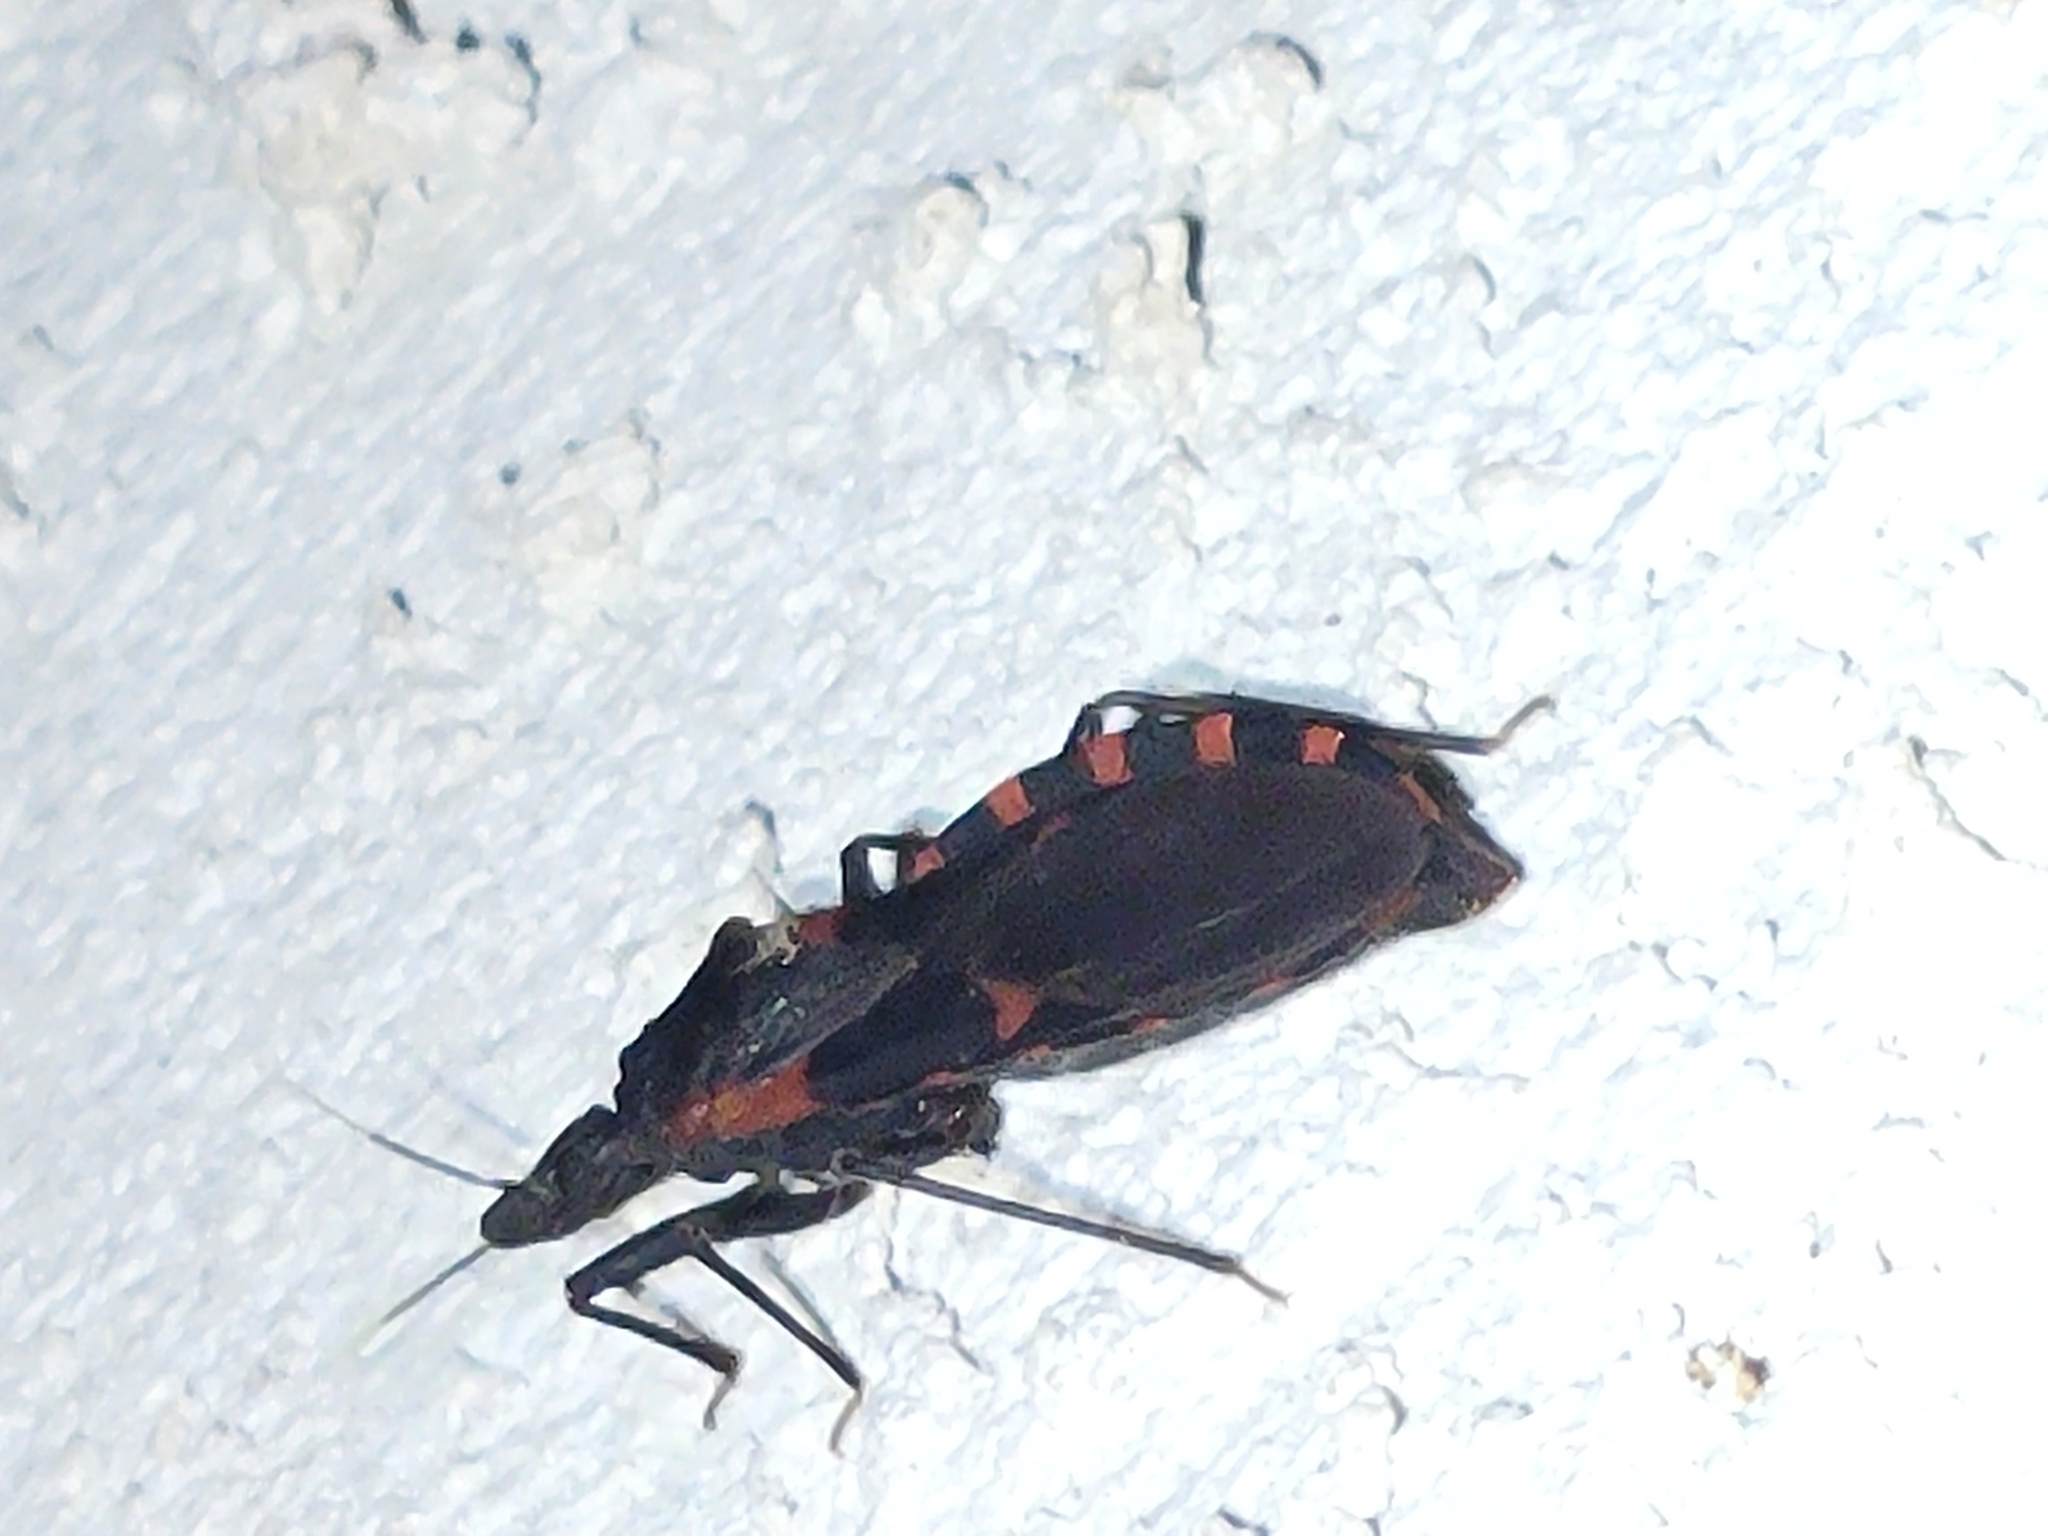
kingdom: Animalia
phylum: Arthropoda
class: Insecta
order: Hemiptera
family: Reduviidae
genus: Triatoma
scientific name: Triatoma sanguisuga
